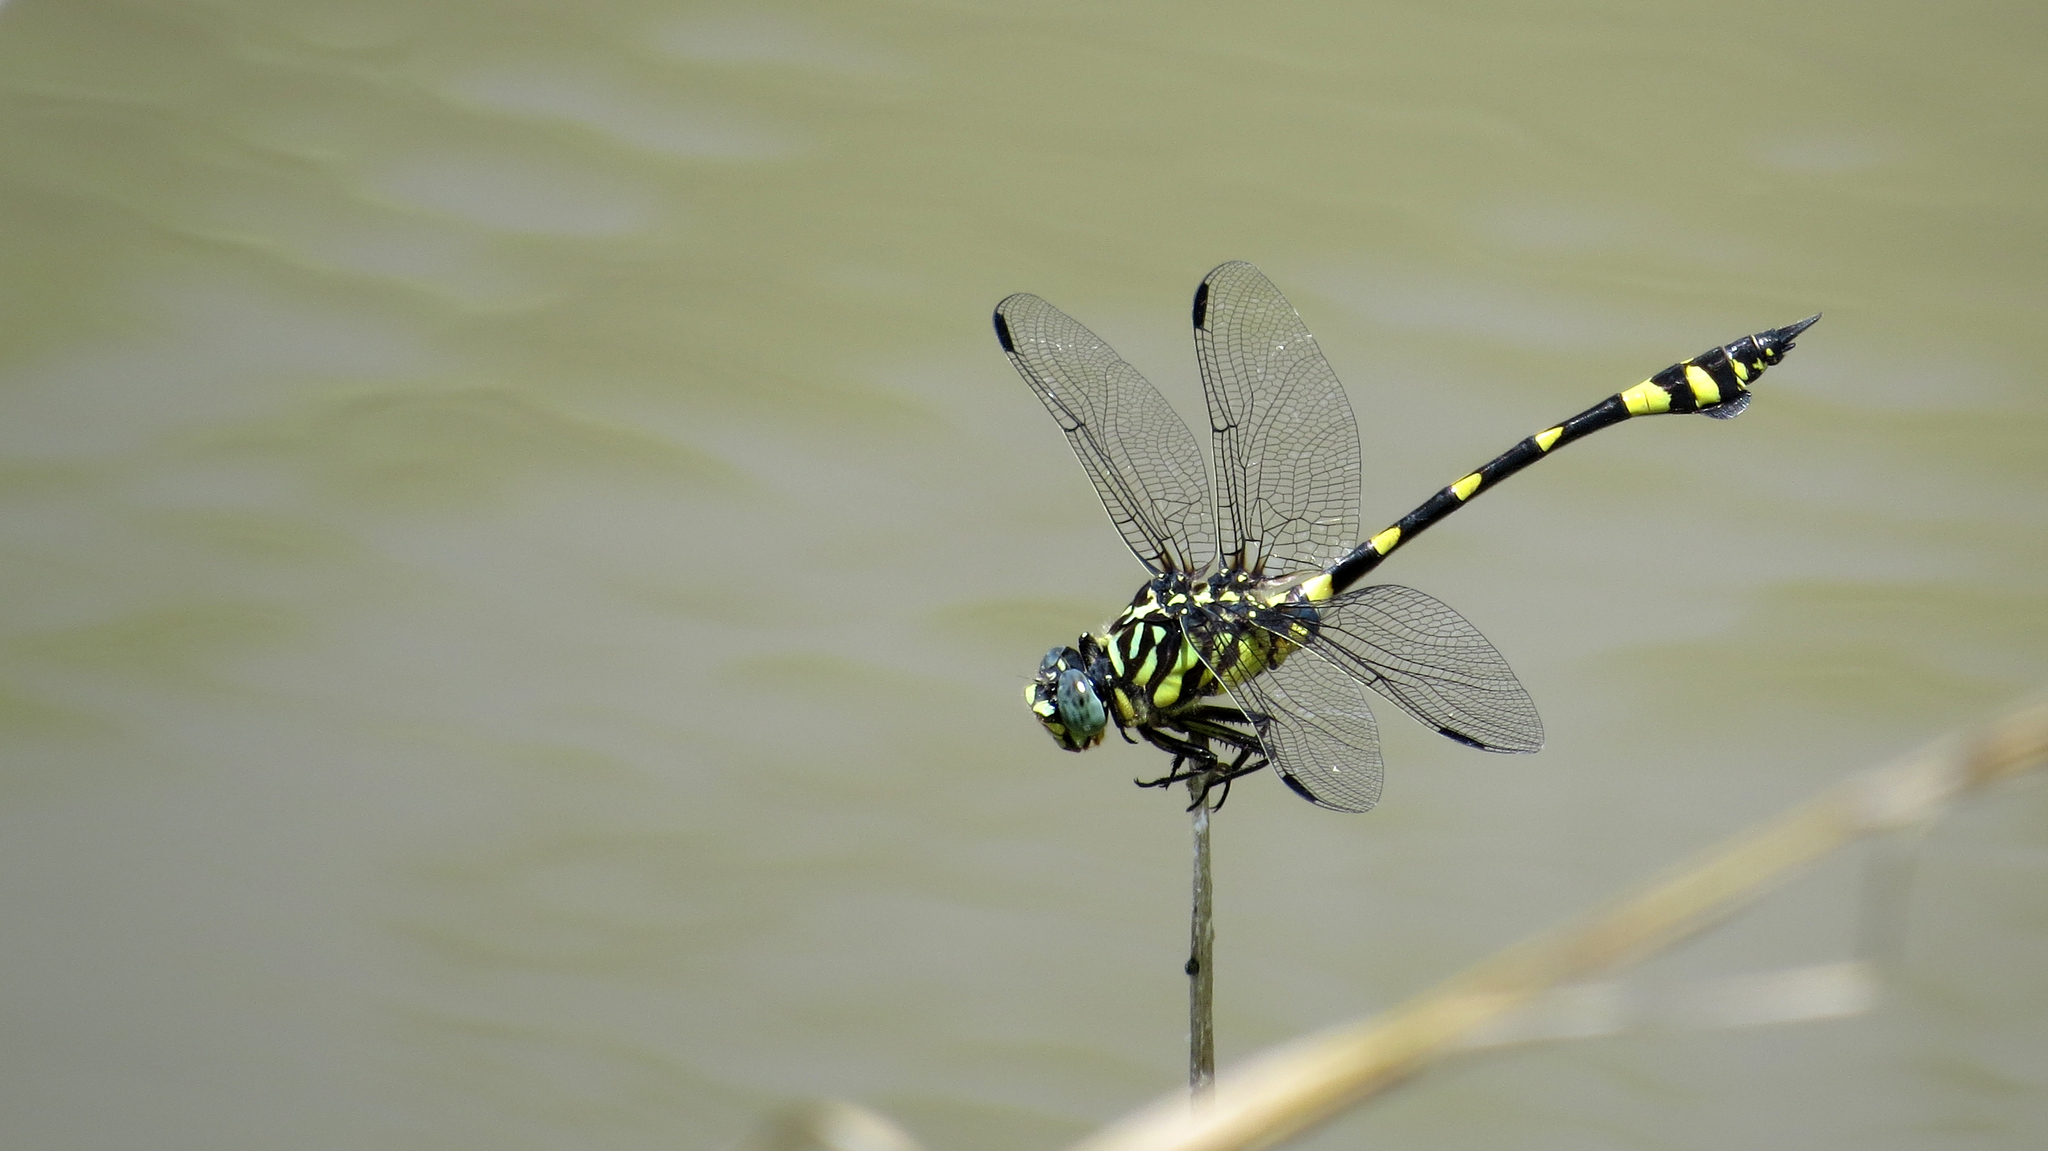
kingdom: Animalia
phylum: Arthropoda
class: Insecta
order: Odonata
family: Gomphidae
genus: Ictinogomphus
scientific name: Ictinogomphus australis
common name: Australian tiger
